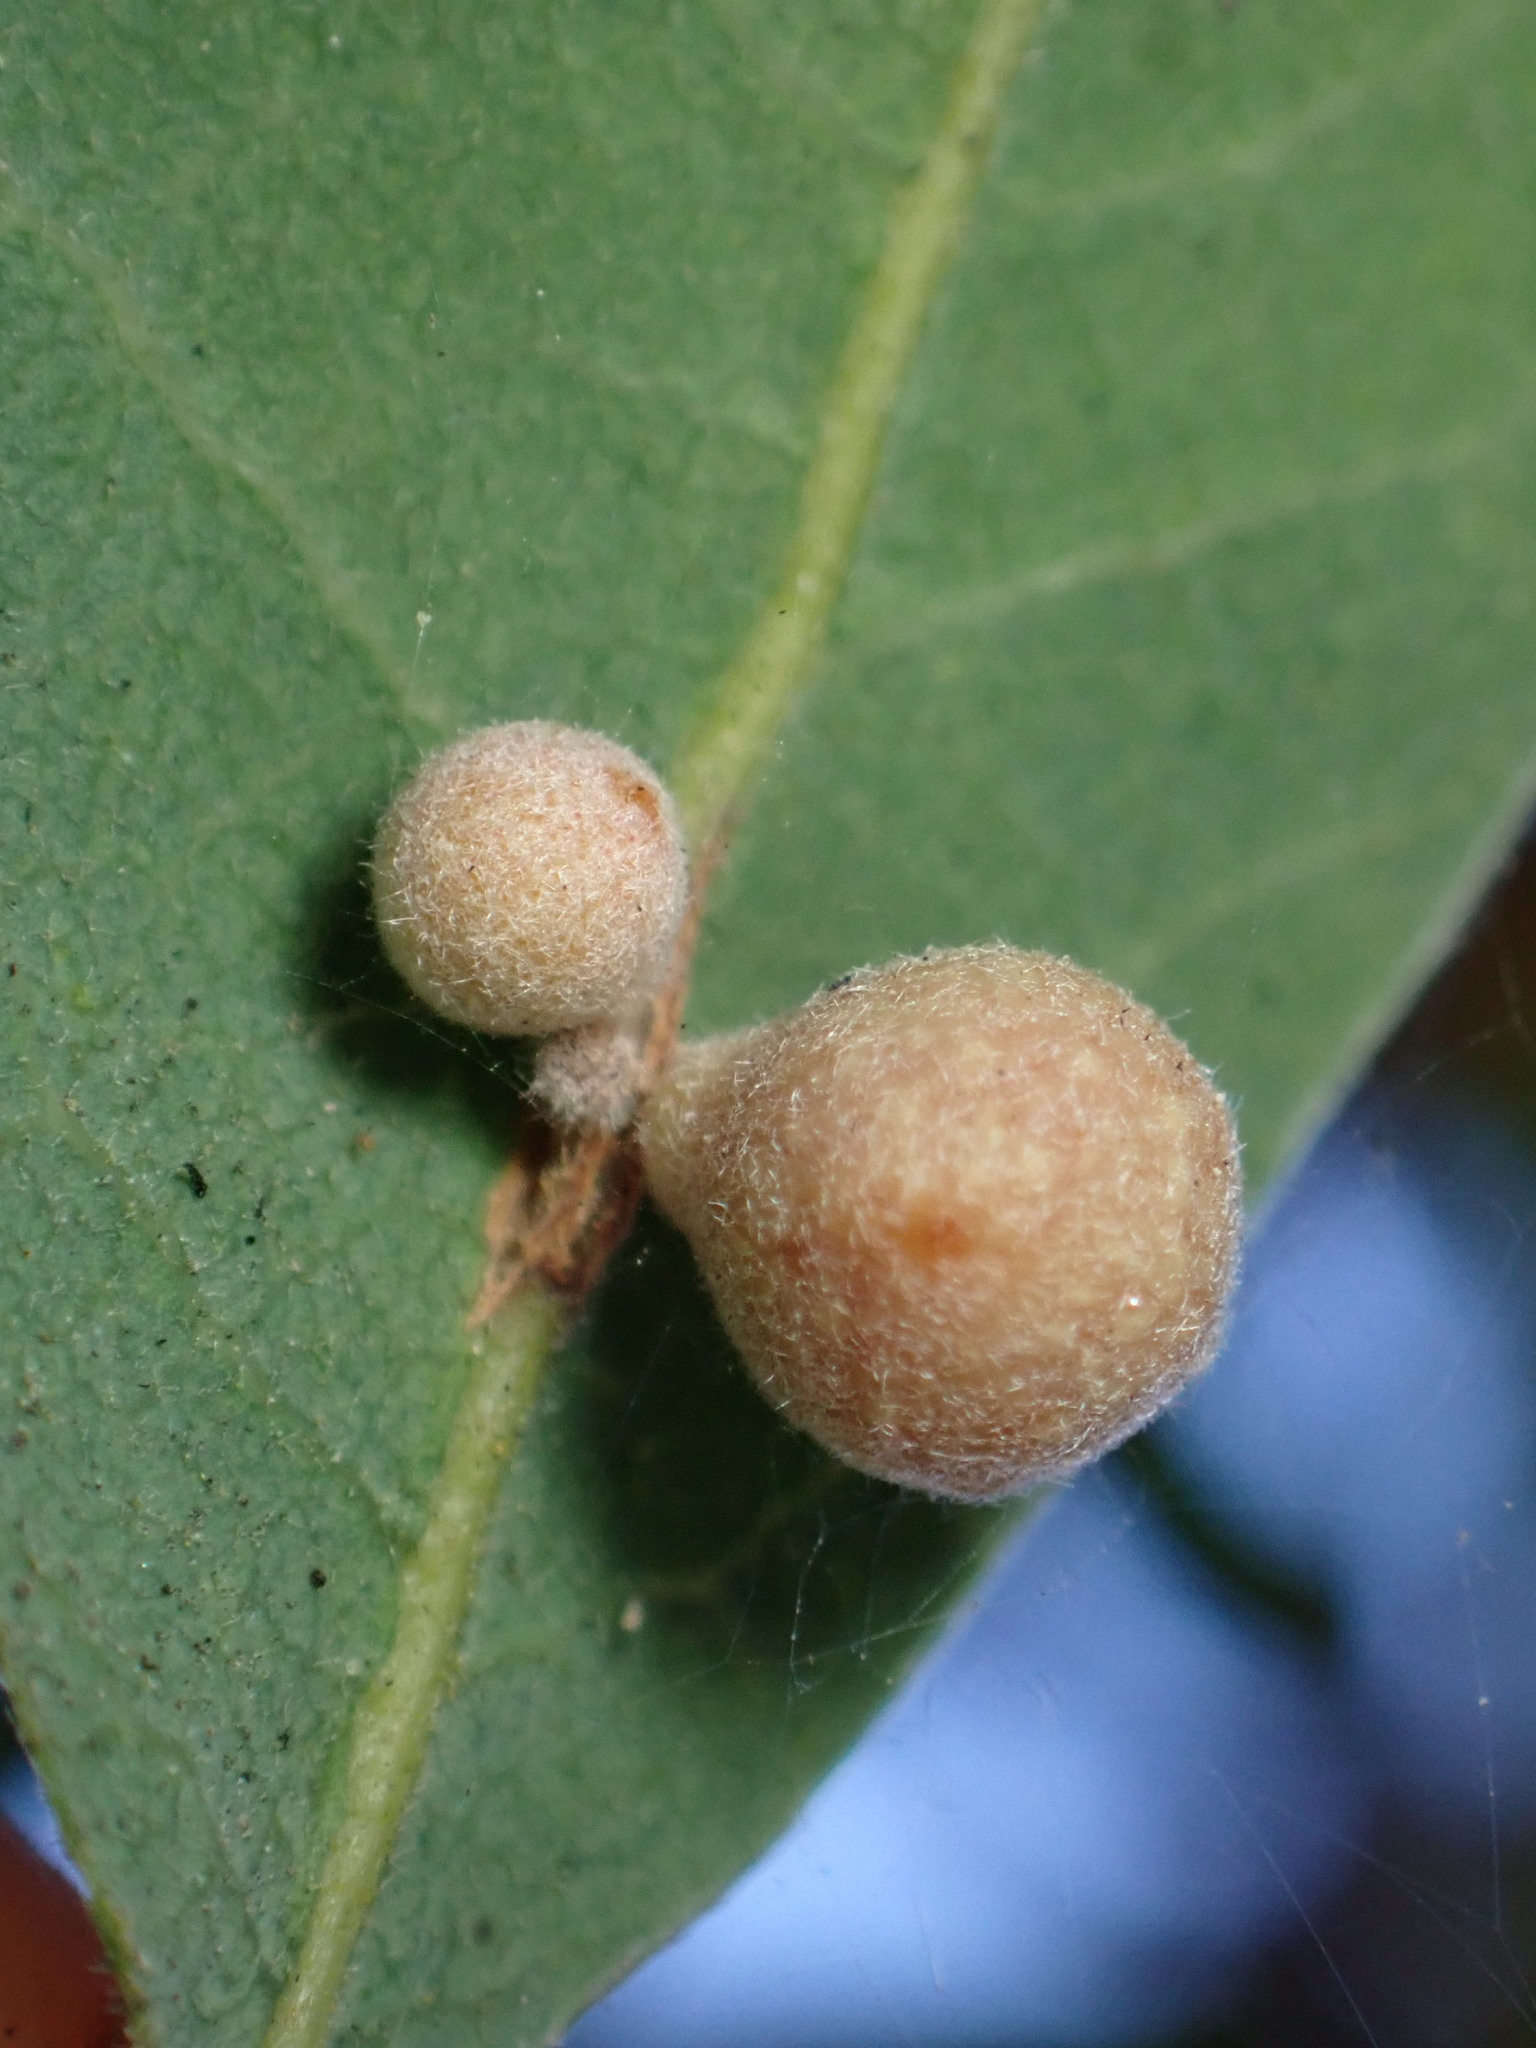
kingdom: Animalia
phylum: Arthropoda
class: Insecta
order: Hymenoptera
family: Cynipidae
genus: Andricus
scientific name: Andricus
